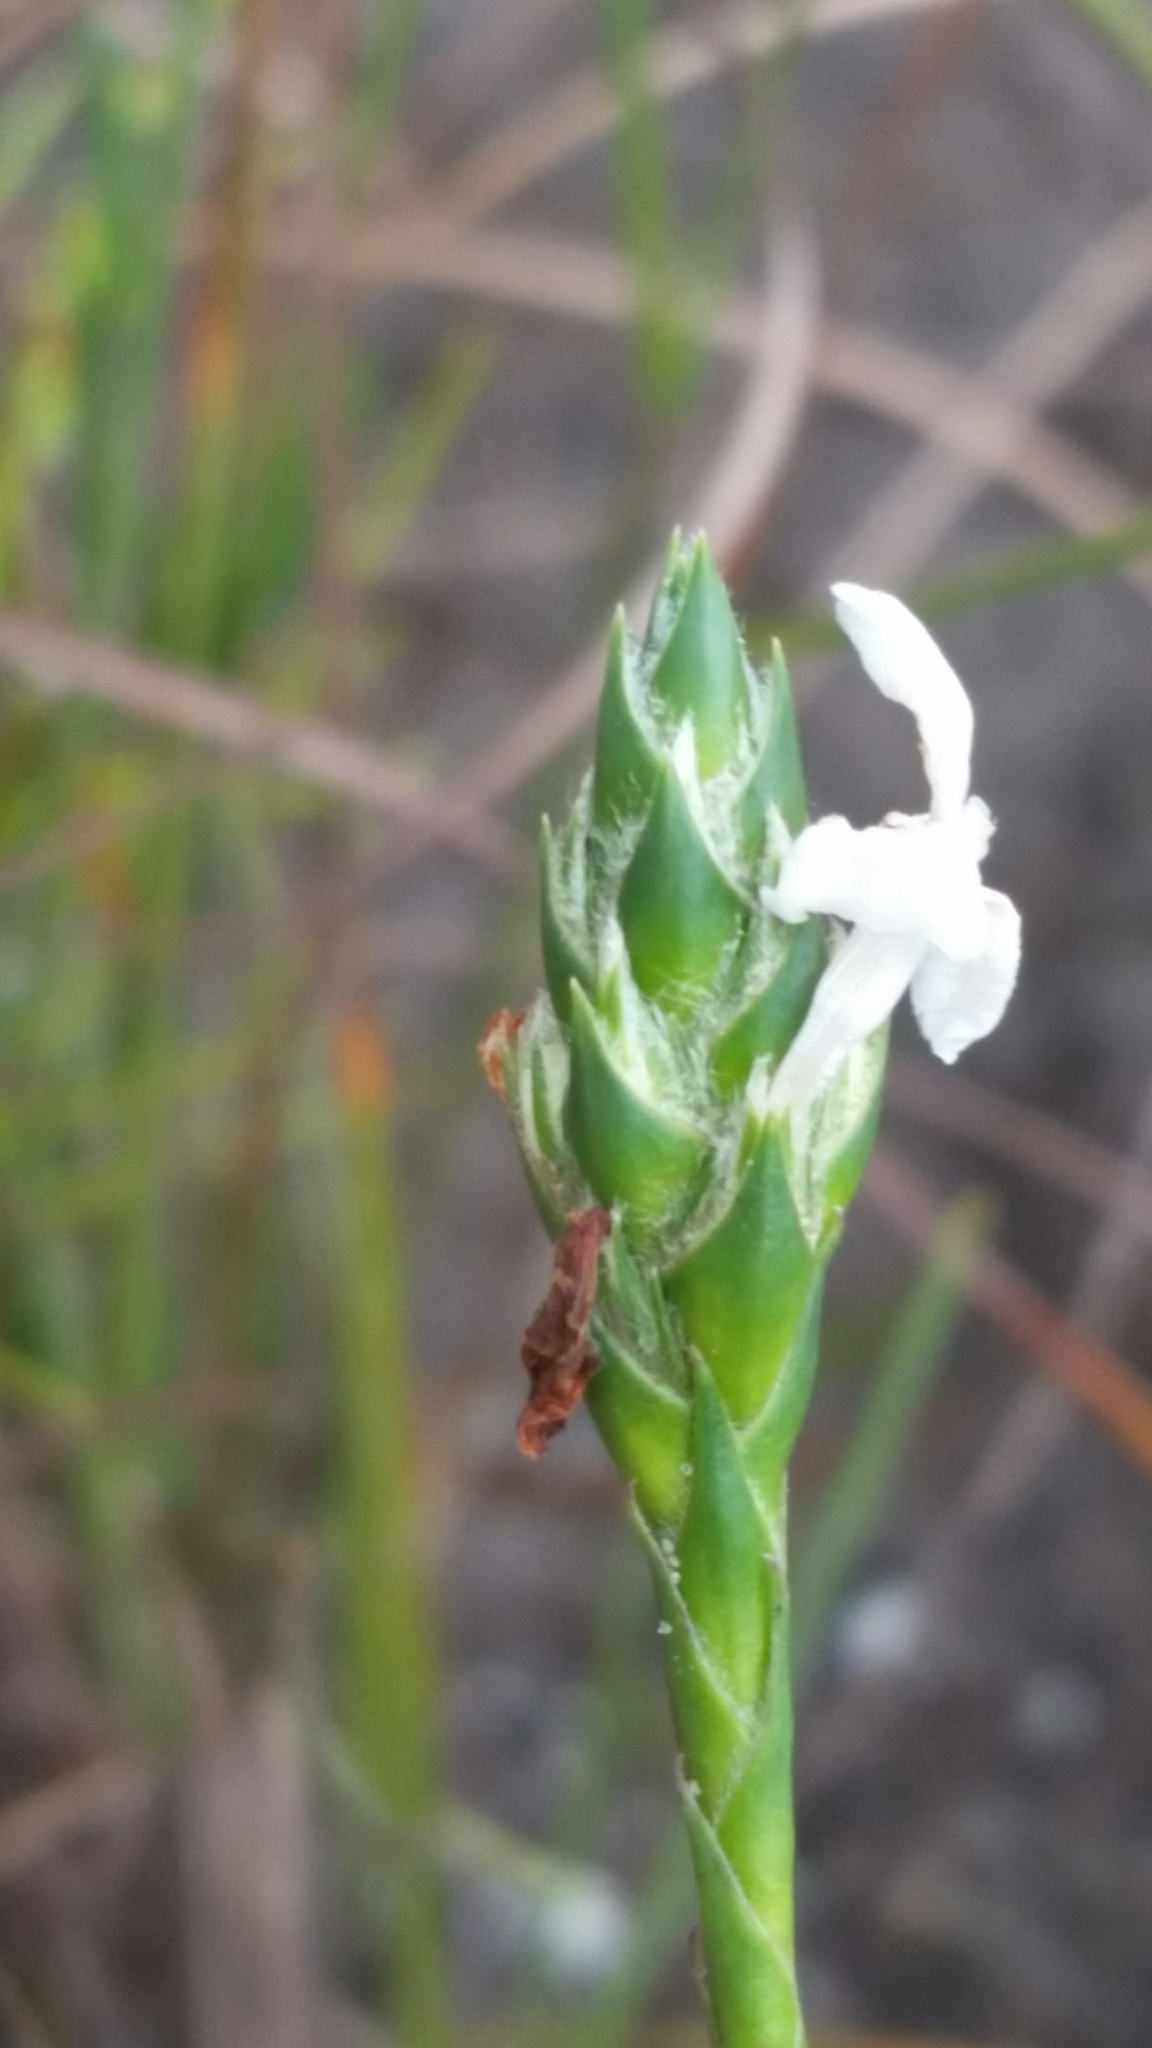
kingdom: Plantae
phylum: Tracheophyta
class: Magnoliopsida
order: Lamiales
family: Acanthaceae
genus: Elytraria
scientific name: Elytraria caroliniensis
